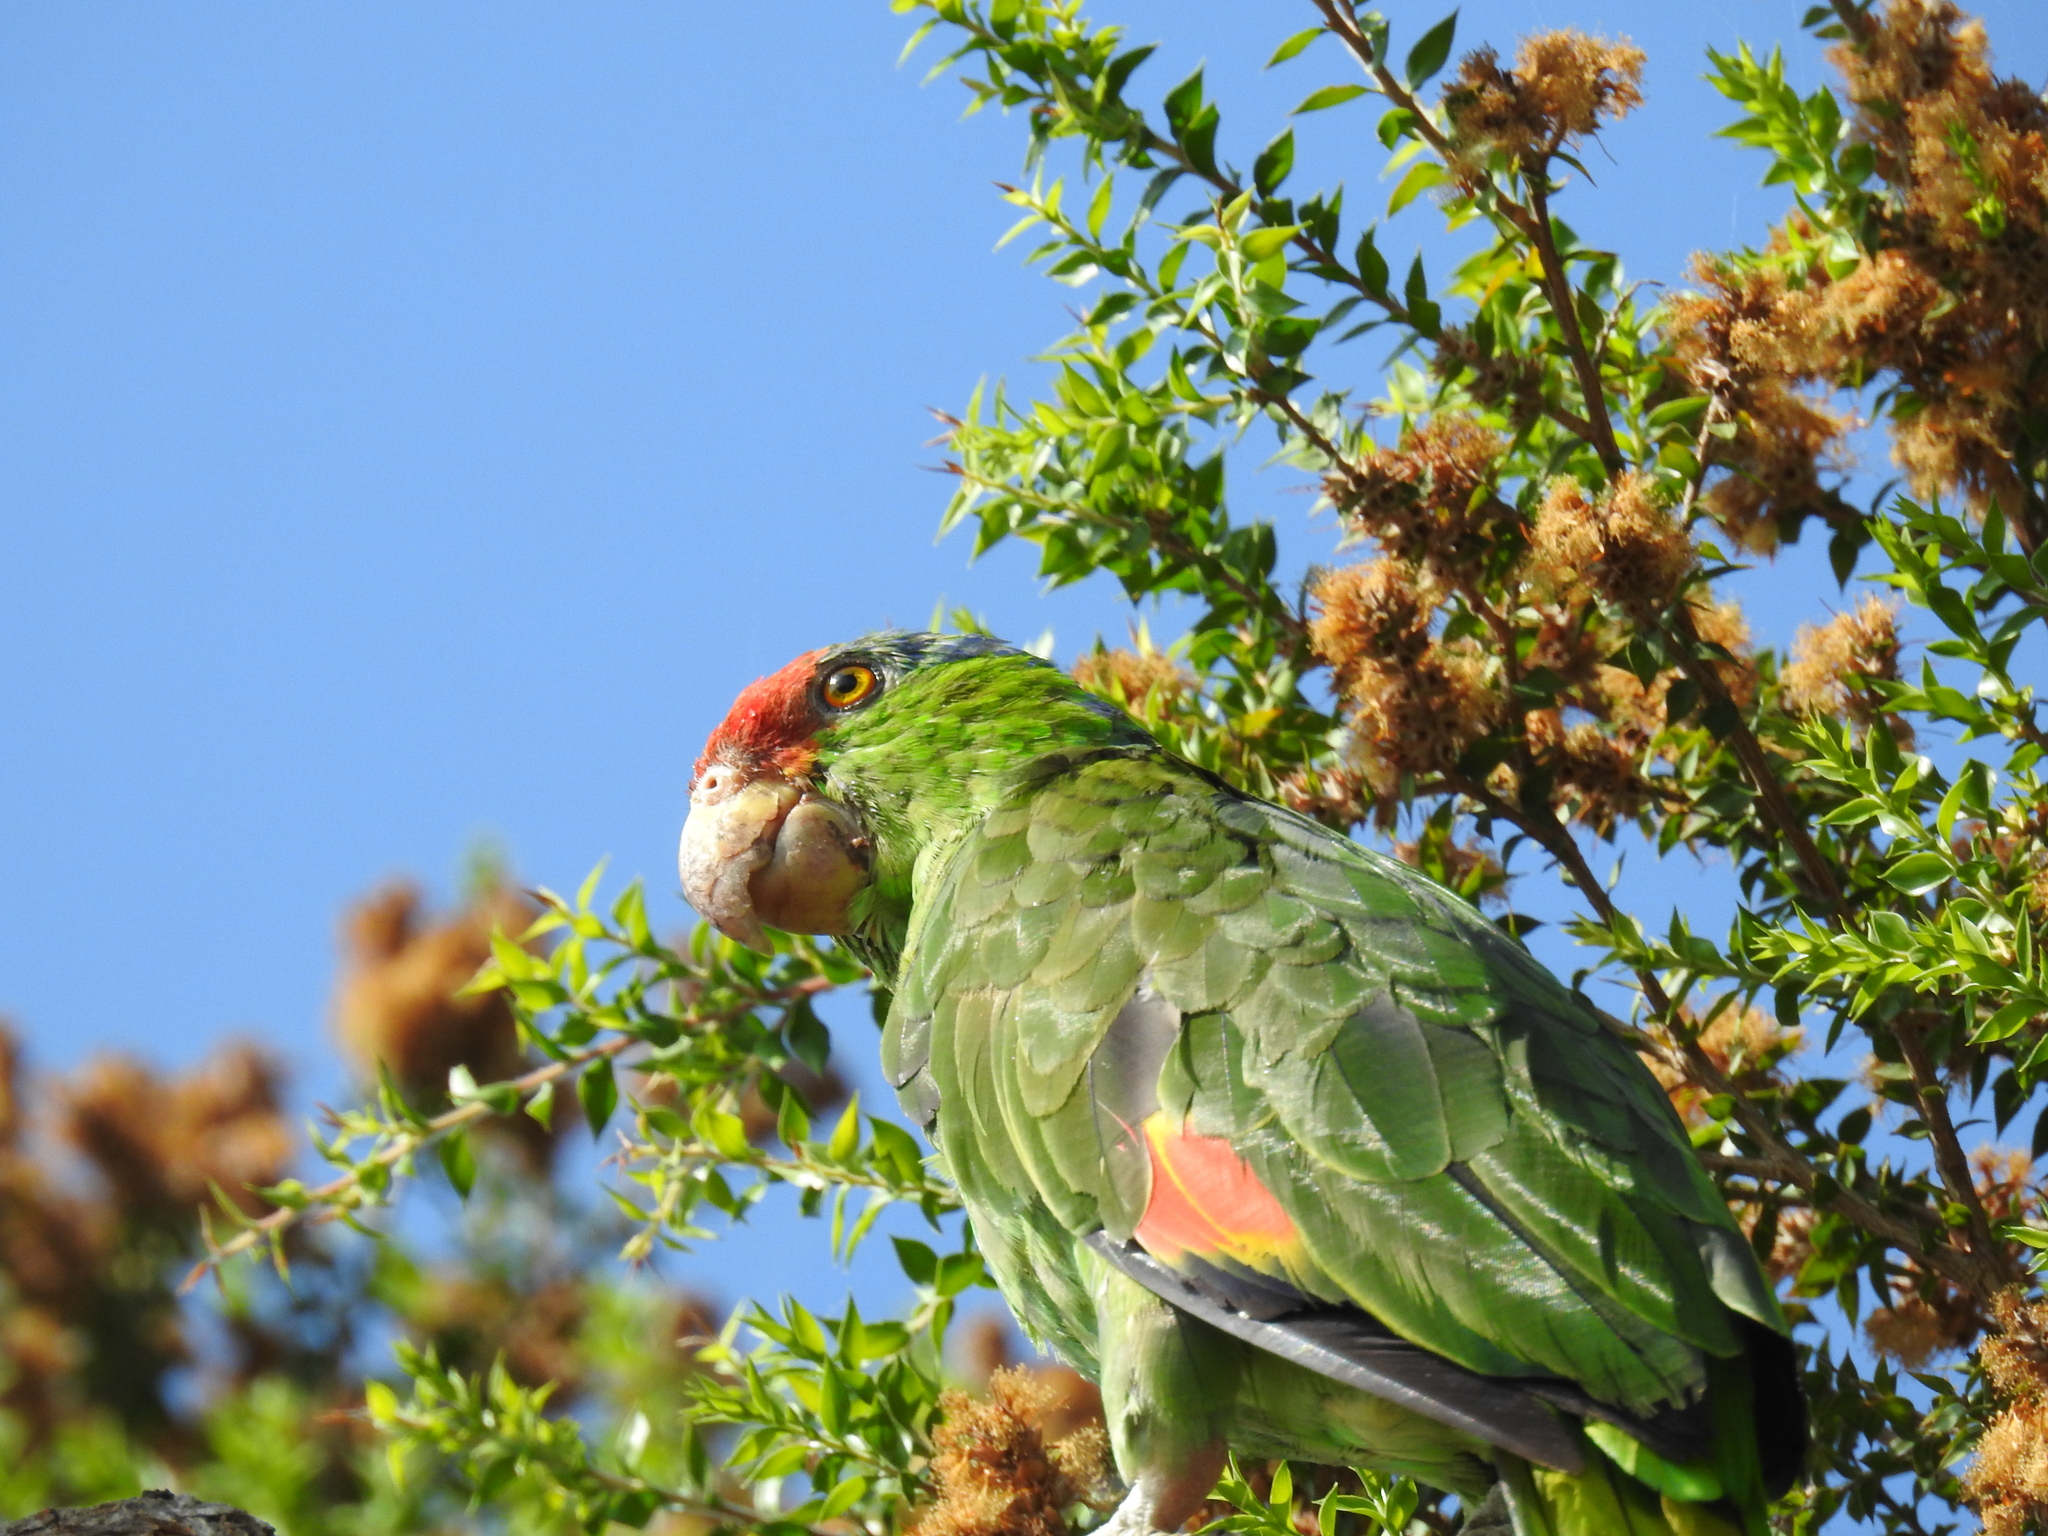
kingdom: Animalia
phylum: Chordata
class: Aves
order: Psittaciformes
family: Psittacidae
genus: Amazona
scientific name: Amazona viridigenalis
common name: Red-crowned amazon
